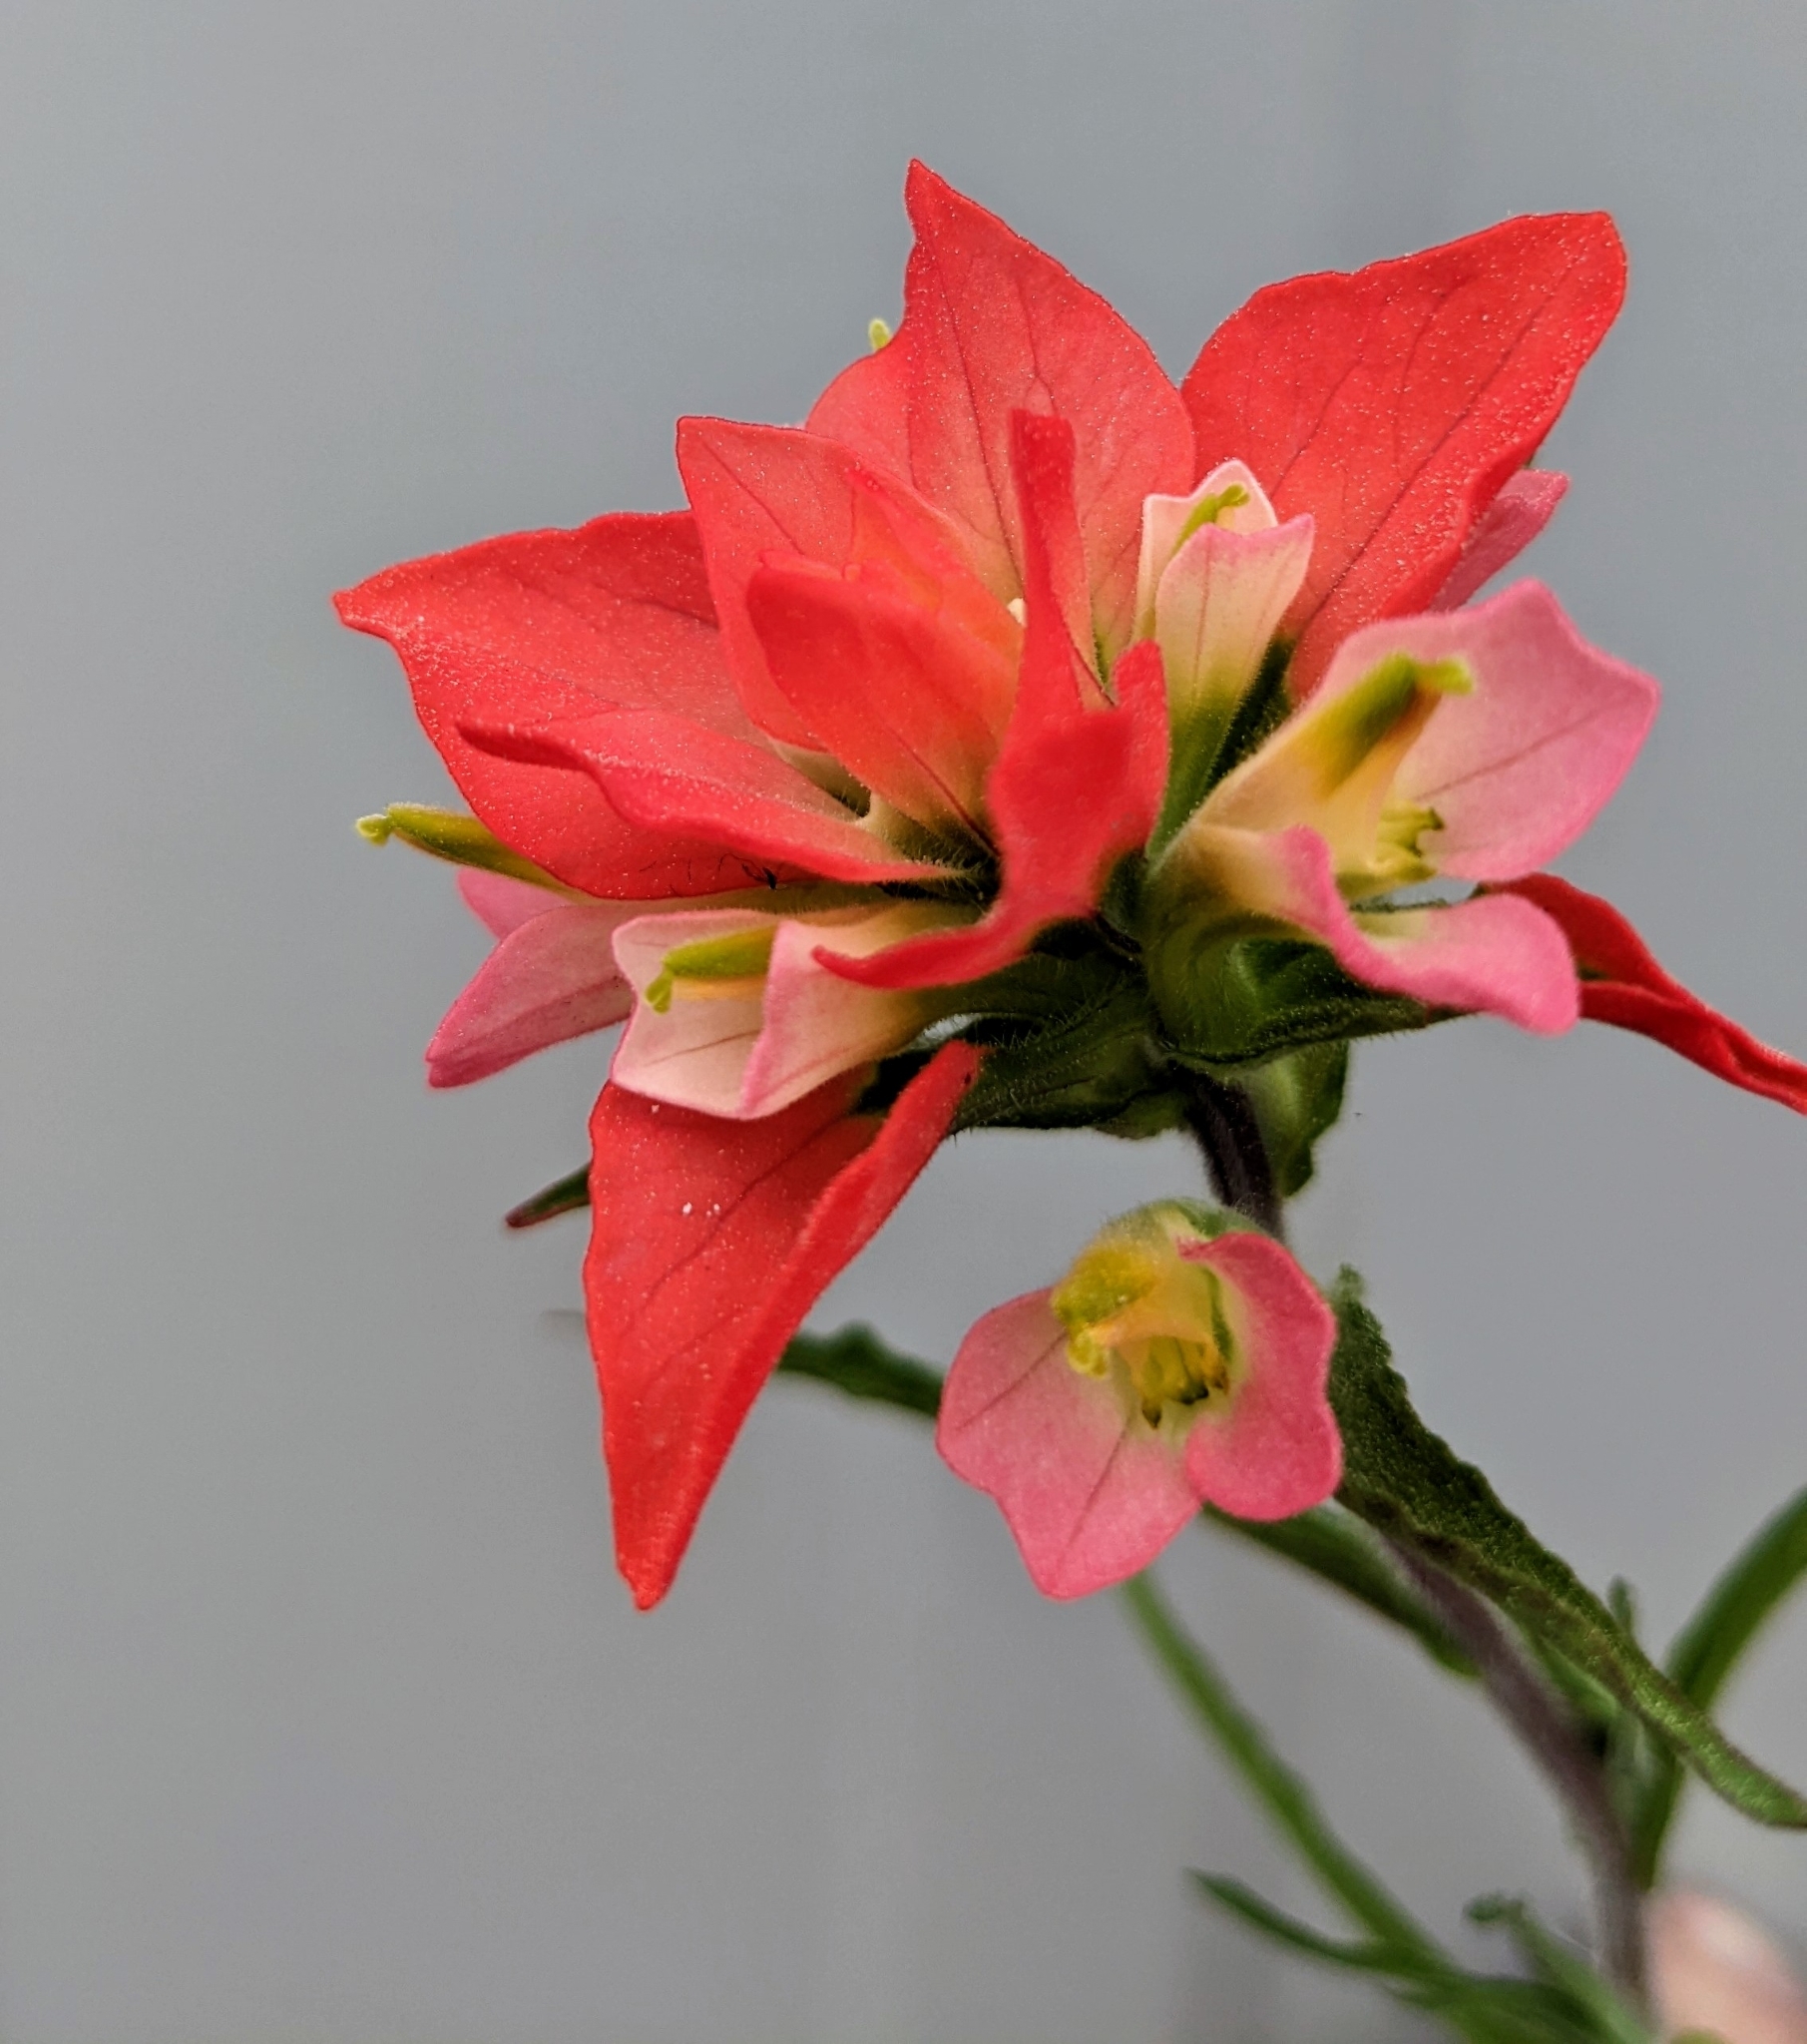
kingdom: Plantae
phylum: Tracheophyta
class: Magnoliopsida
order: Lamiales
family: Orobanchaceae
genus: Castilleja
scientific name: Castilleja indivisa
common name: Texas paintbrush
